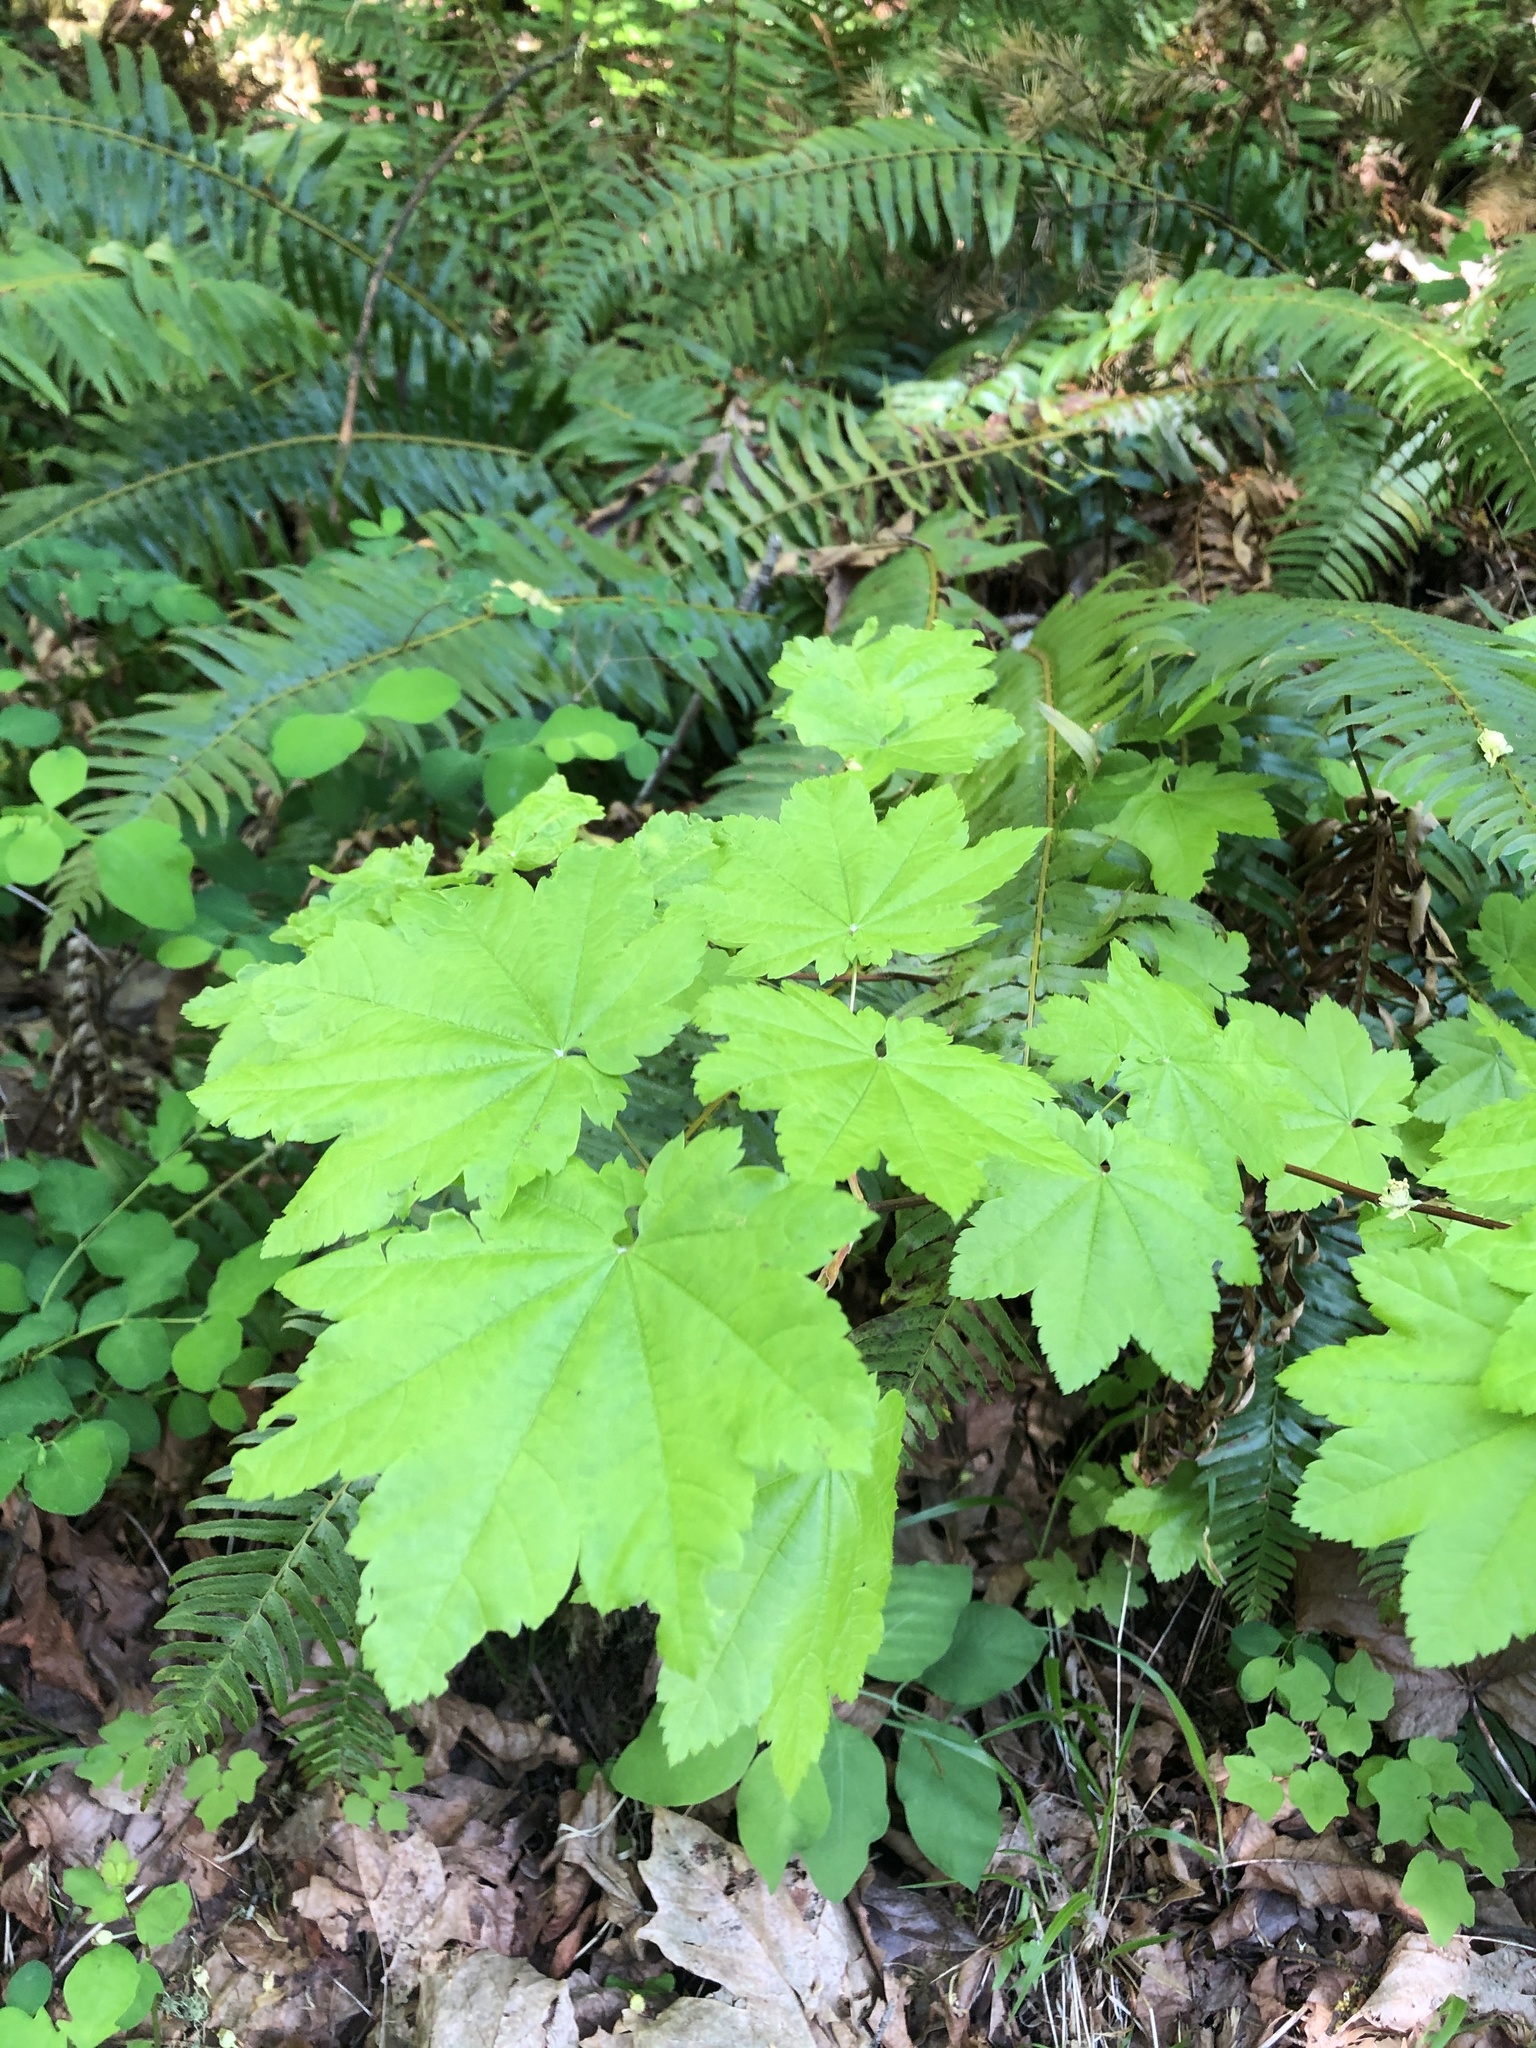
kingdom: Plantae
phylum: Tracheophyta
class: Magnoliopsida
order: Sapindales
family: Sapindaceae
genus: Acer
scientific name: Acer circinatum
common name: Vine maple
